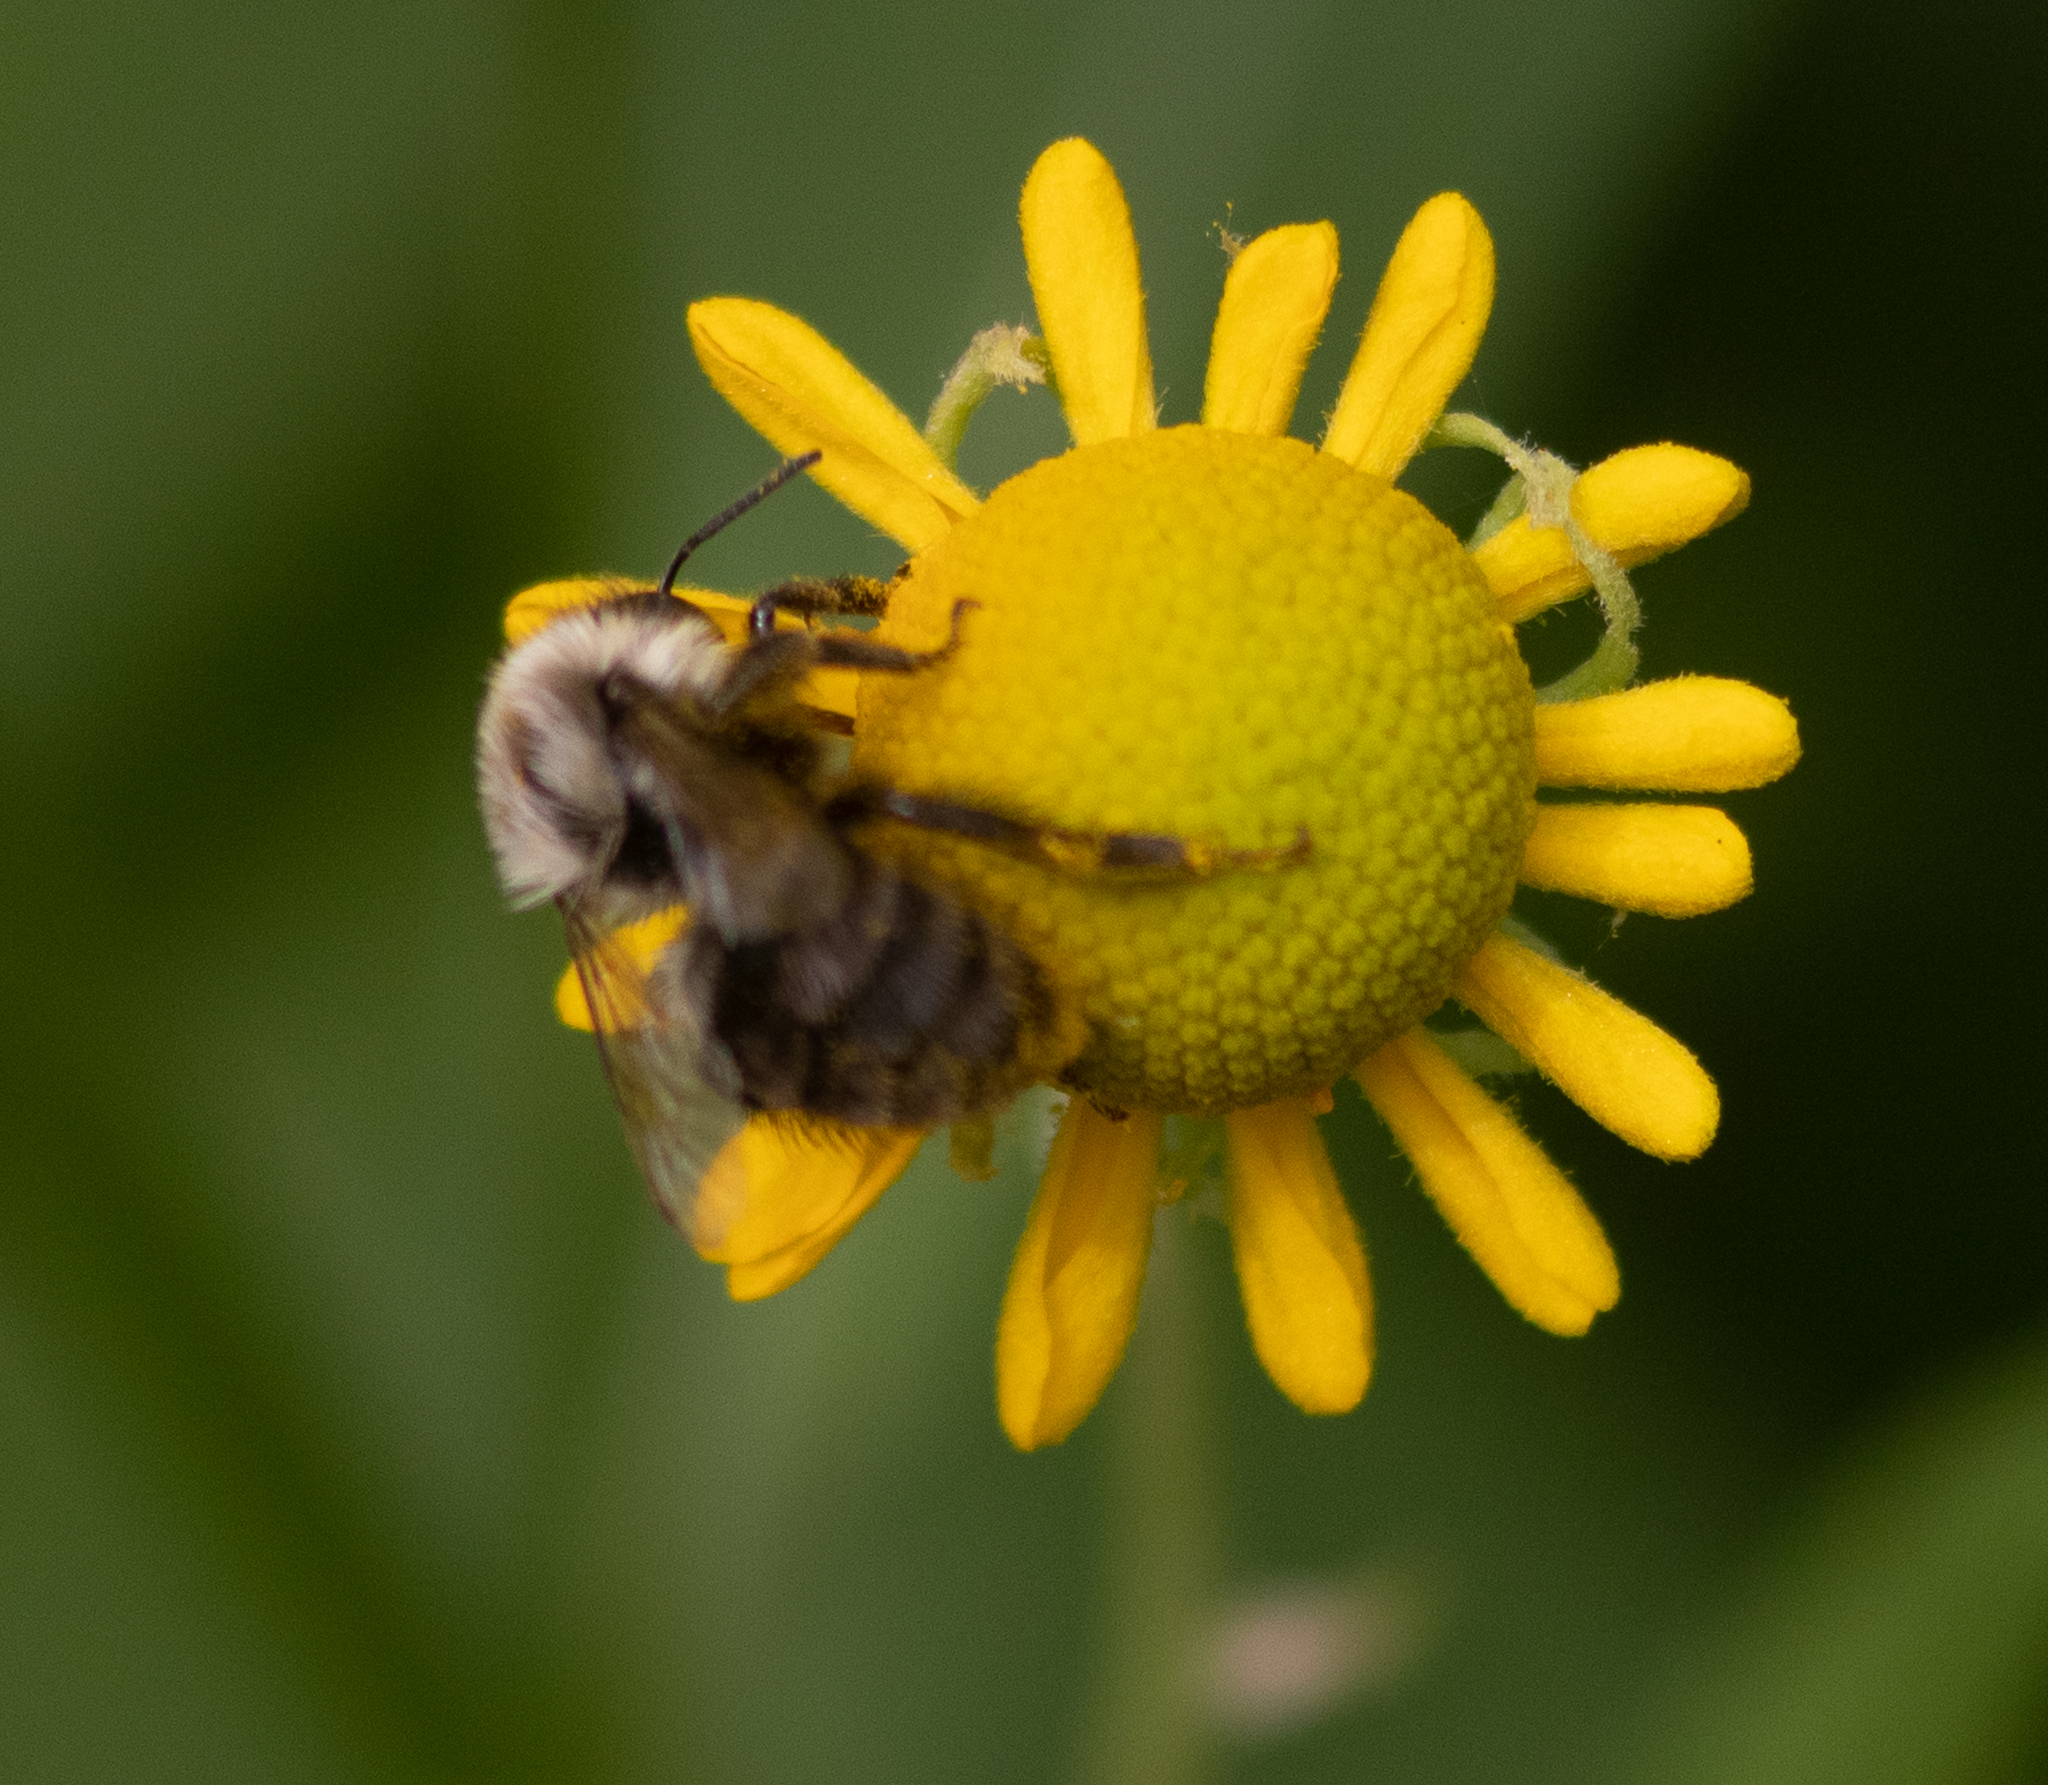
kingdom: Animalia
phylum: Arthropoda
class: Insecta
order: Hymenoptera
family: Apidae
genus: Bombus
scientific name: Bombus impatiens
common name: Common eastern bumble bee
